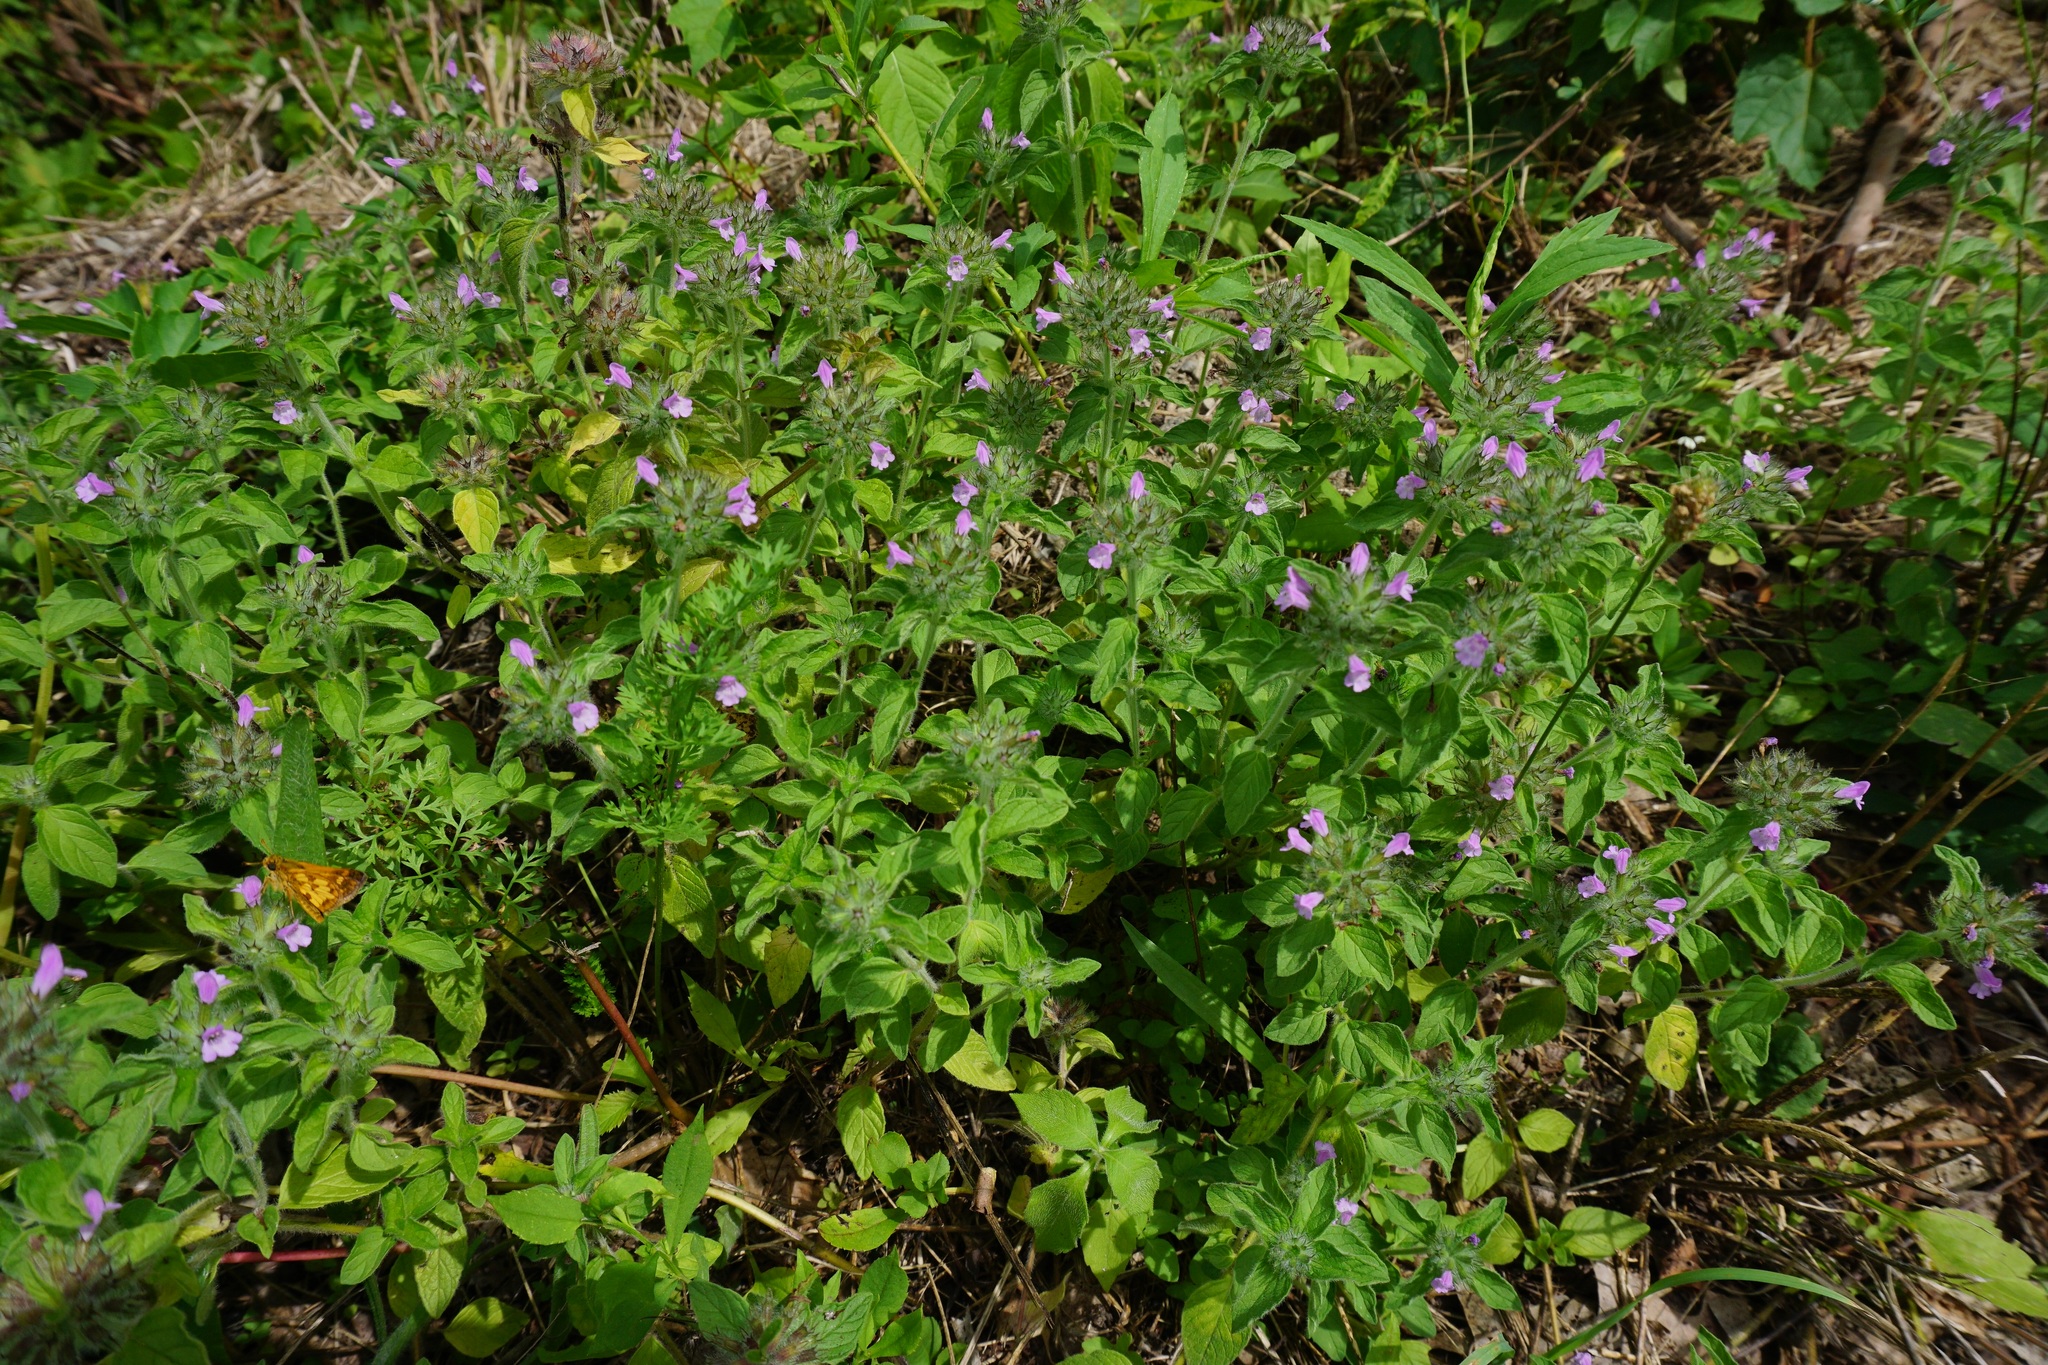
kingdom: Plantae
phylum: Tracheophyta
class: Magnoliopsida
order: Lamiales
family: Lamiaceae
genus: Clinopodium
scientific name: Clinopodium vulgare
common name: Wild basil
